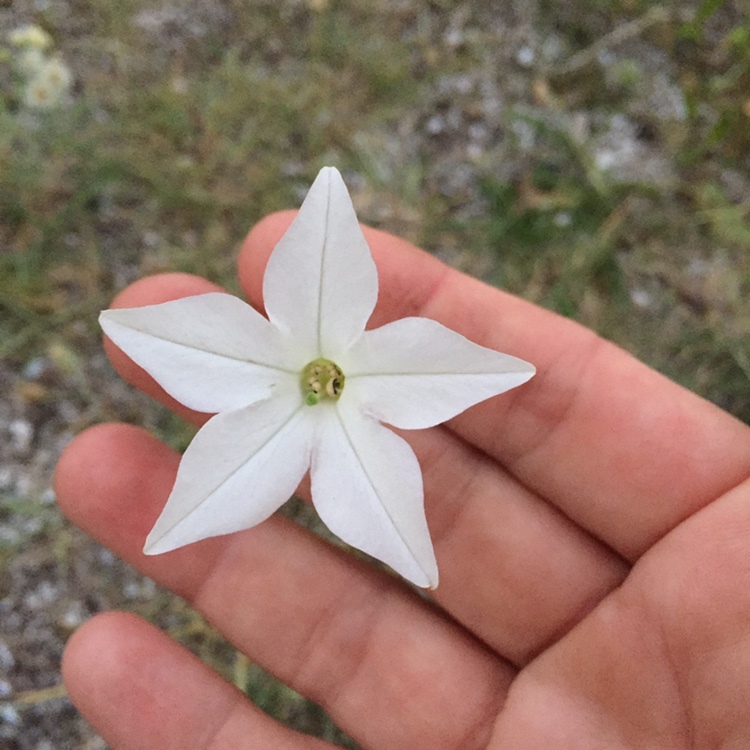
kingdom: Plantae
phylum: Tracheophyta
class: Magnoliopsida
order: Solanales
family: Solanaceae
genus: Nicotiana
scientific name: Nicotiana longiflora
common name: Long-flowered tobacco
